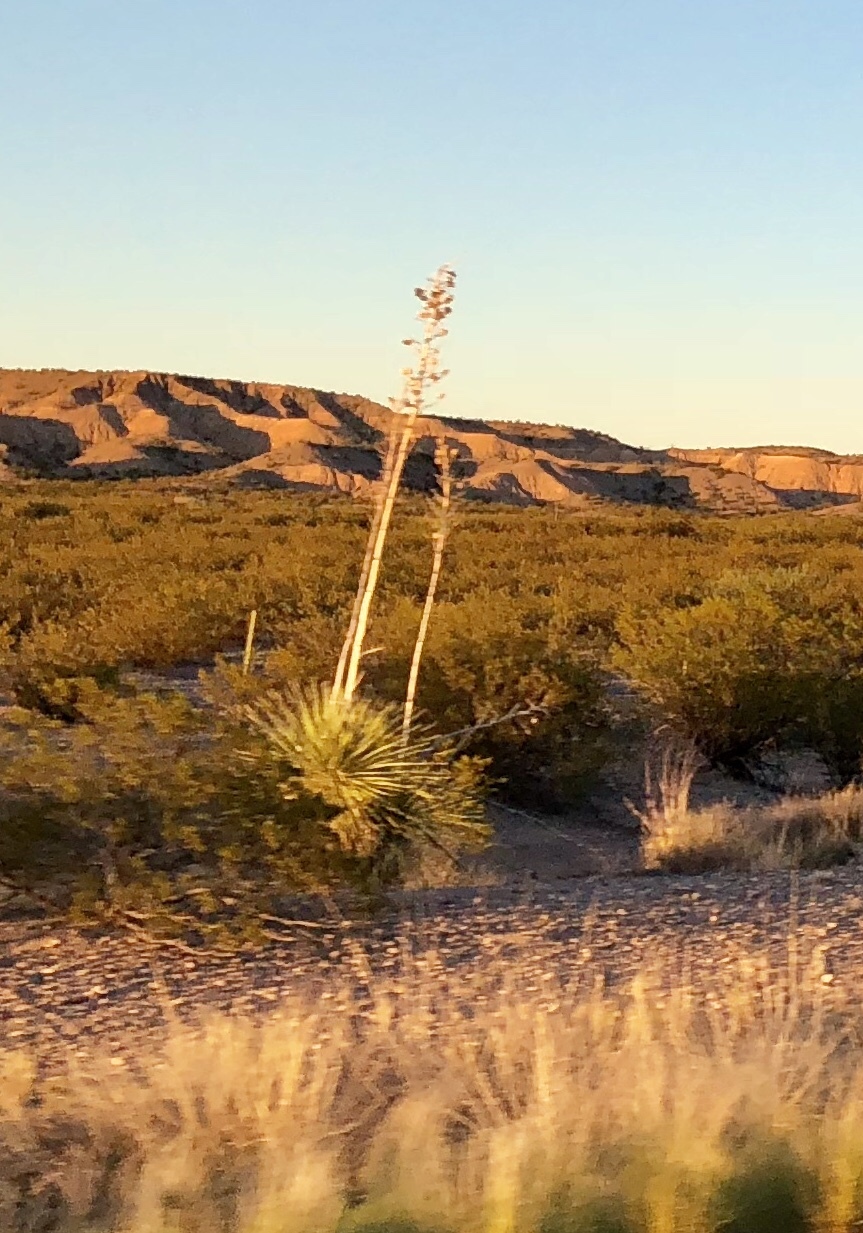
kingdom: Plantae
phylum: Tracheophyta
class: Liliopsida
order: Asparagales
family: Asparagaceae
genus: Yucca
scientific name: Yucca elata
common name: Palmella
